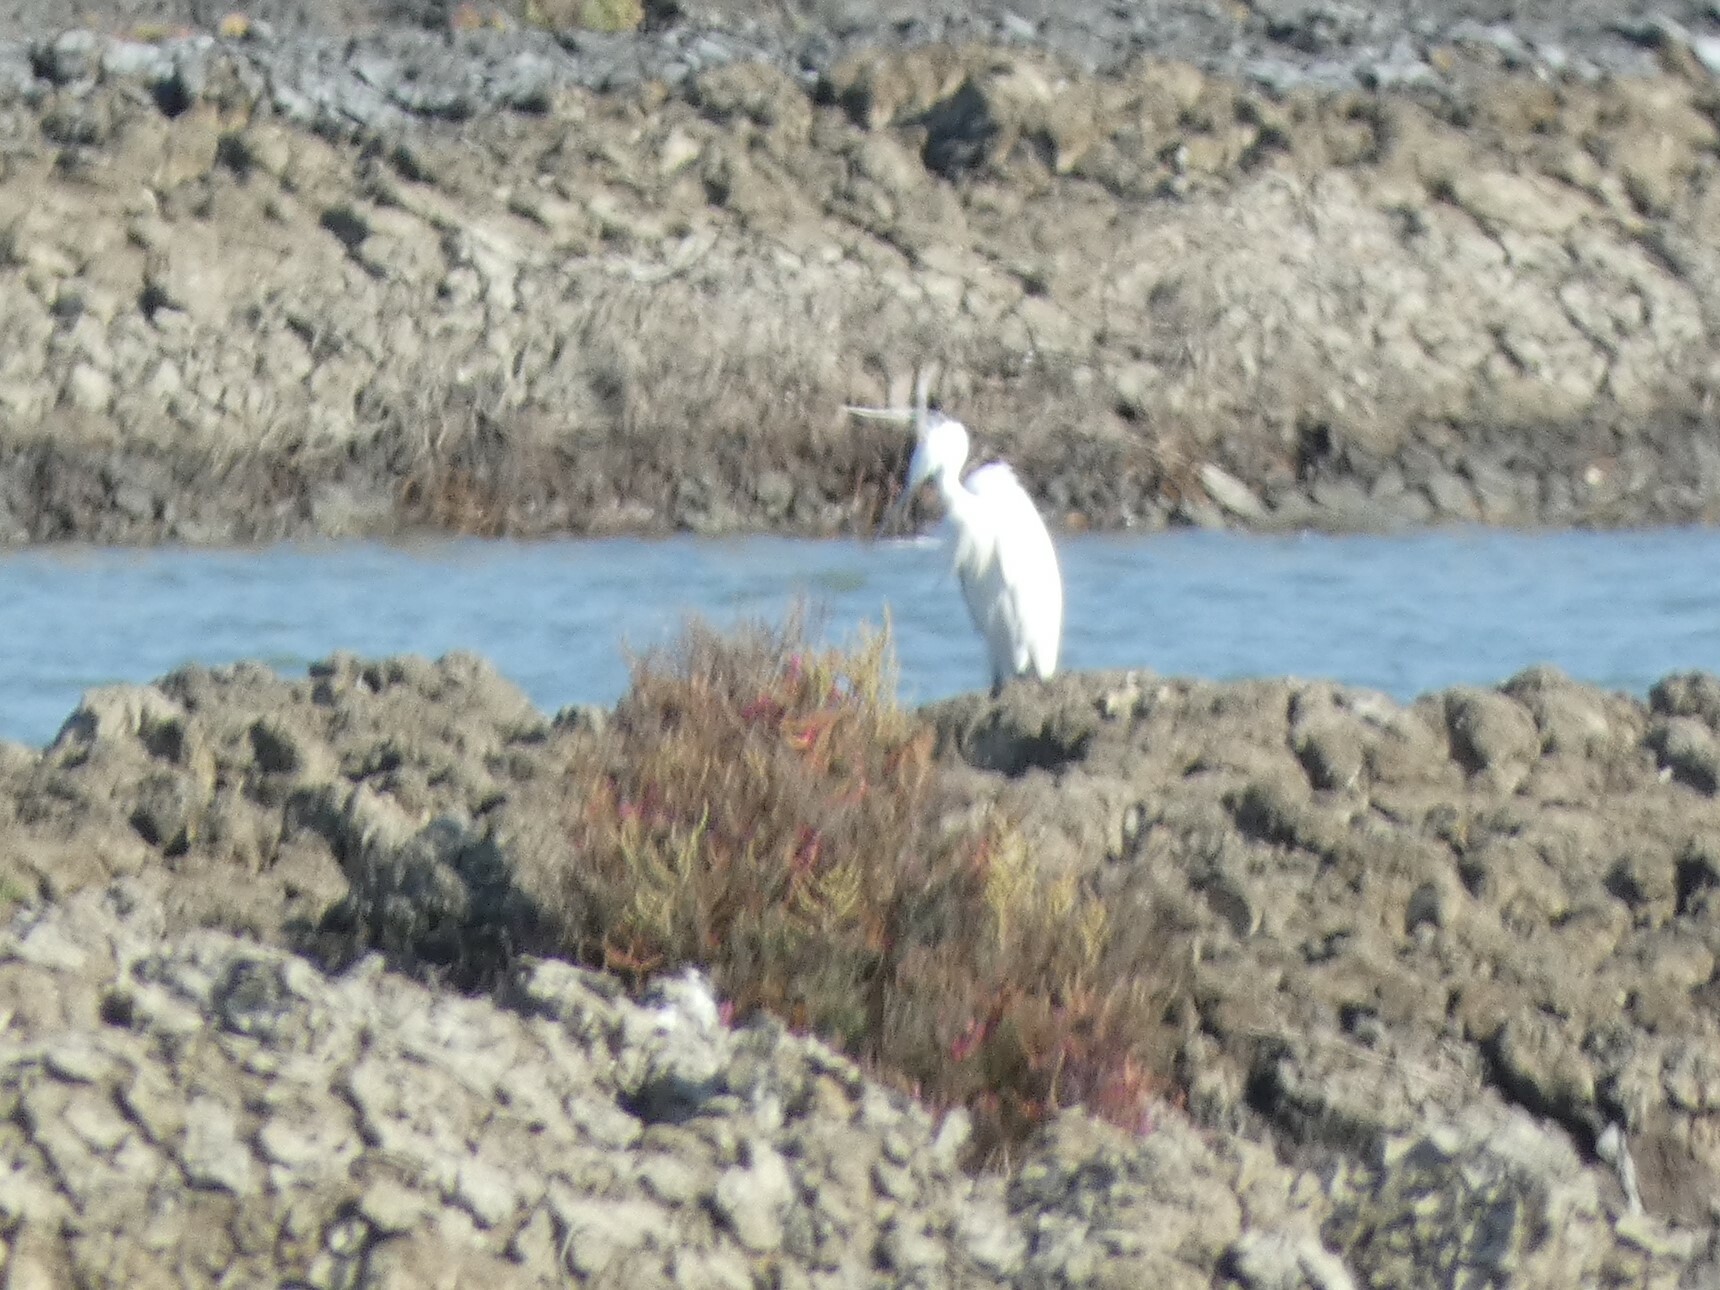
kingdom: Animalia
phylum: Chordata
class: Aves
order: Pelecaniformes
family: Ardeidae
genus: Egretta
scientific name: Egretta garzetta
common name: Little egret
